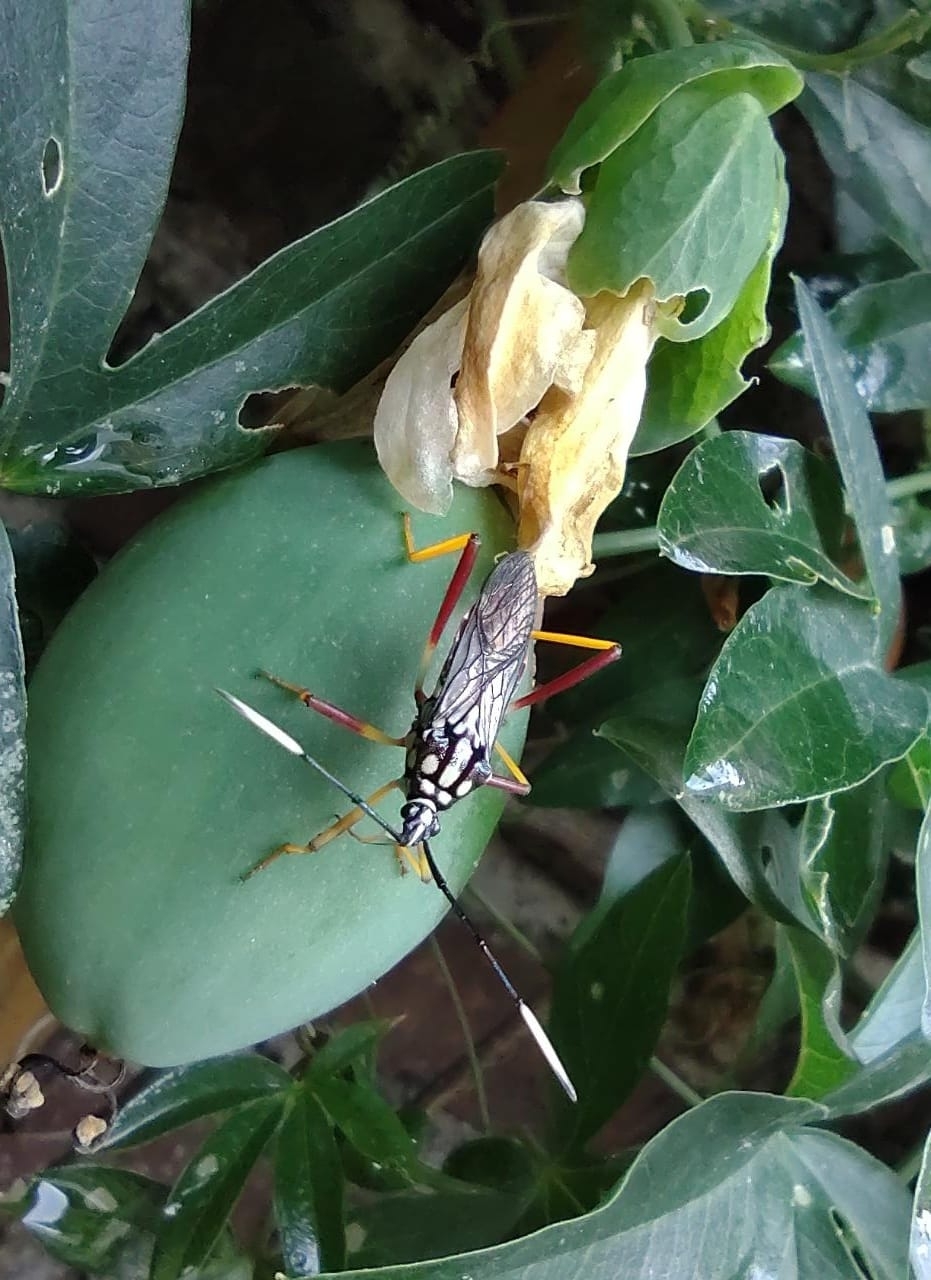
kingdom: Animalia
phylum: Arthropoda
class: Insecta
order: Hemiptera
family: Coreidae
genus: Holhymenia
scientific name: Holhymenia histrio
